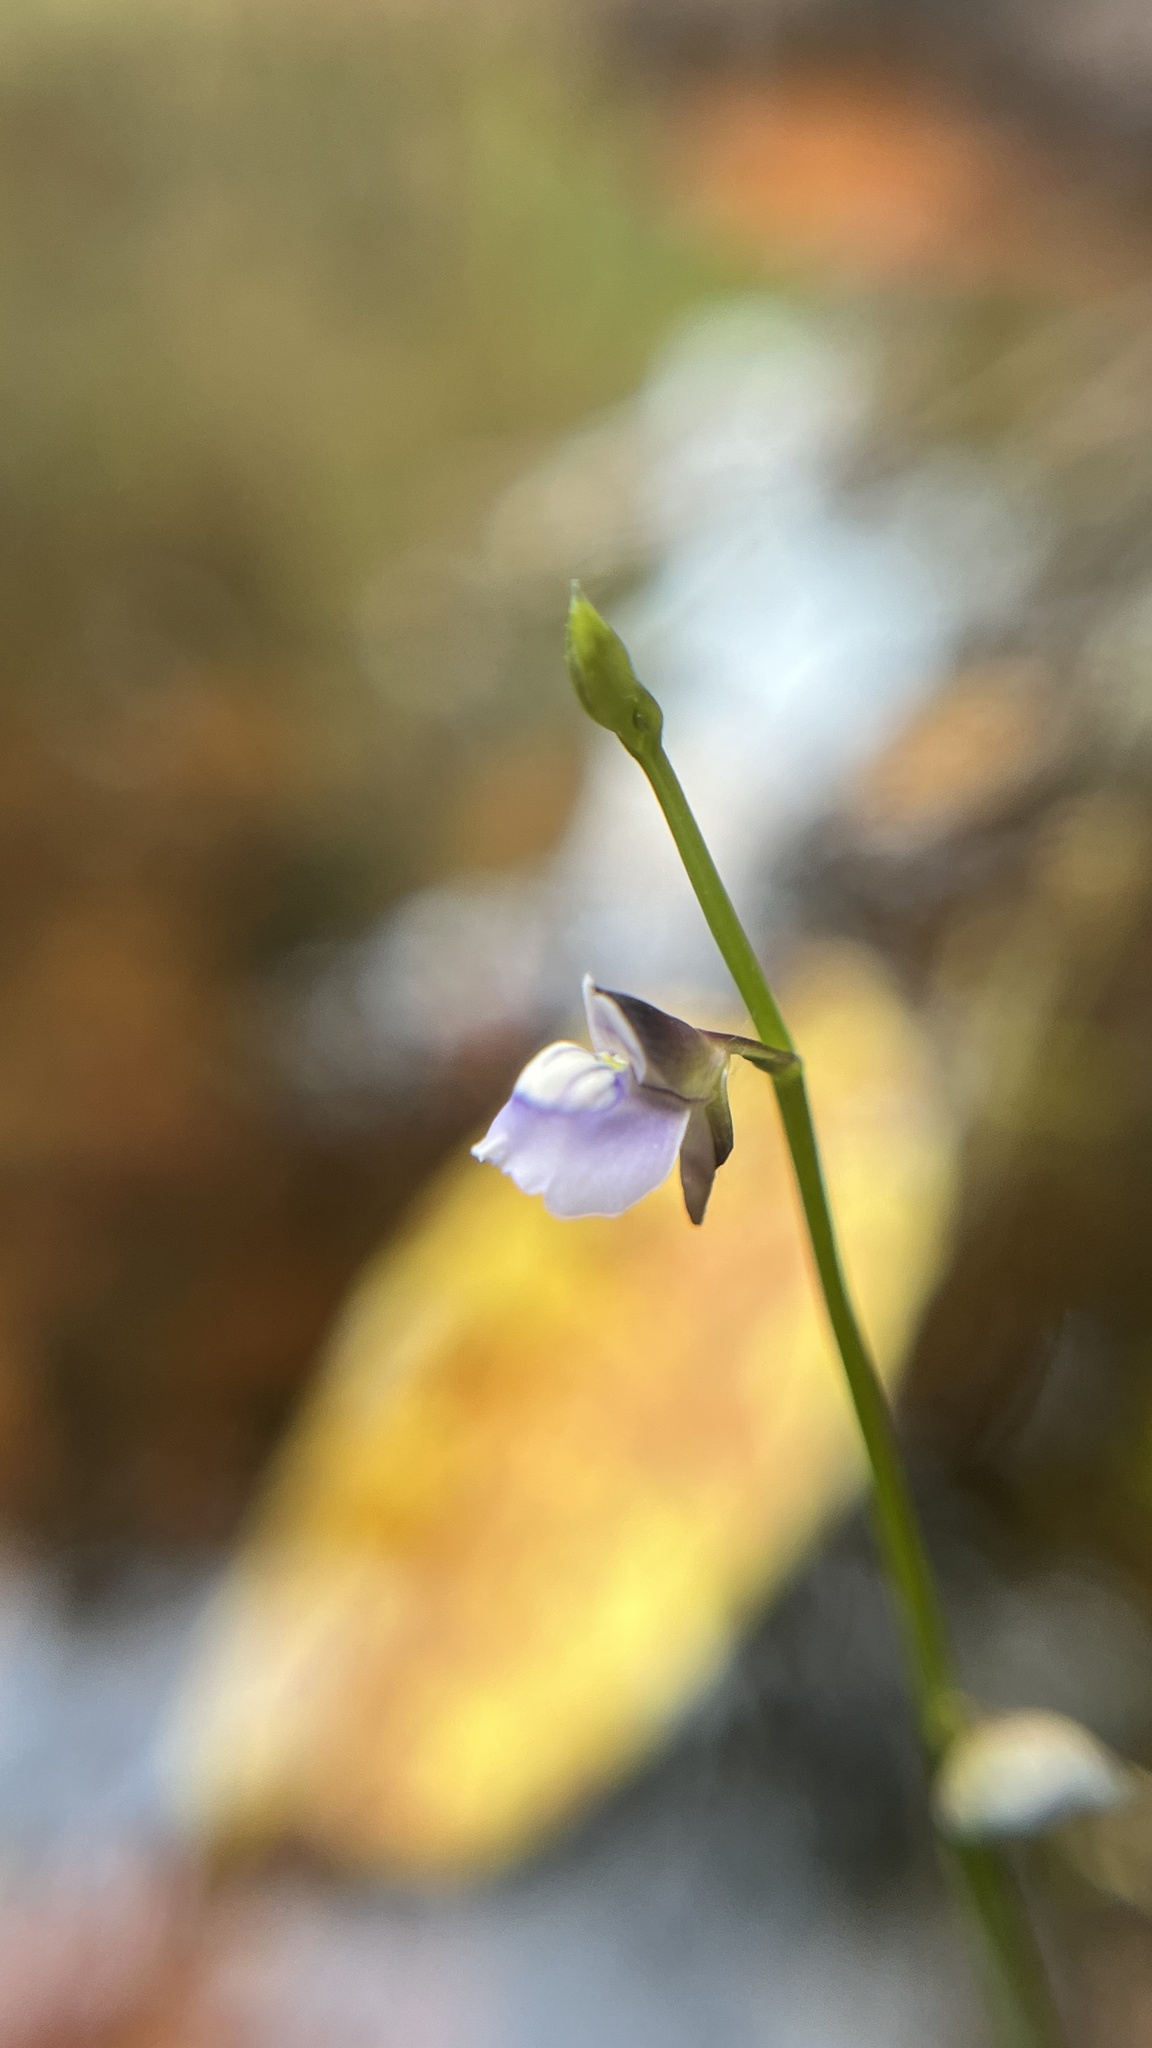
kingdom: Plantae
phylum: Tracheophyta
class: Magnoliopsida
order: Lamiales
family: Lentibulariaceae
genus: Utricularia
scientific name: Utricularia uliginosa
